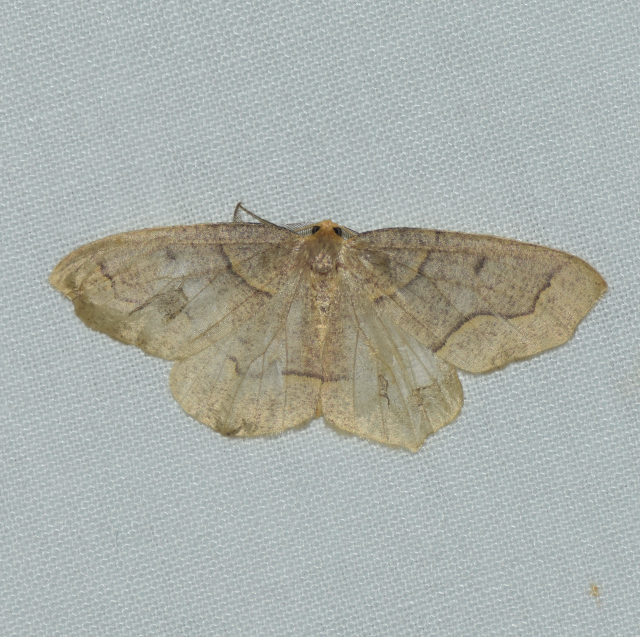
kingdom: Animalia
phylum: Arthropoda
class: Insecta
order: Lepidoptera
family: Geometridae
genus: Lambdina
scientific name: Lambdina fiscellaria
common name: Hemlock looper
